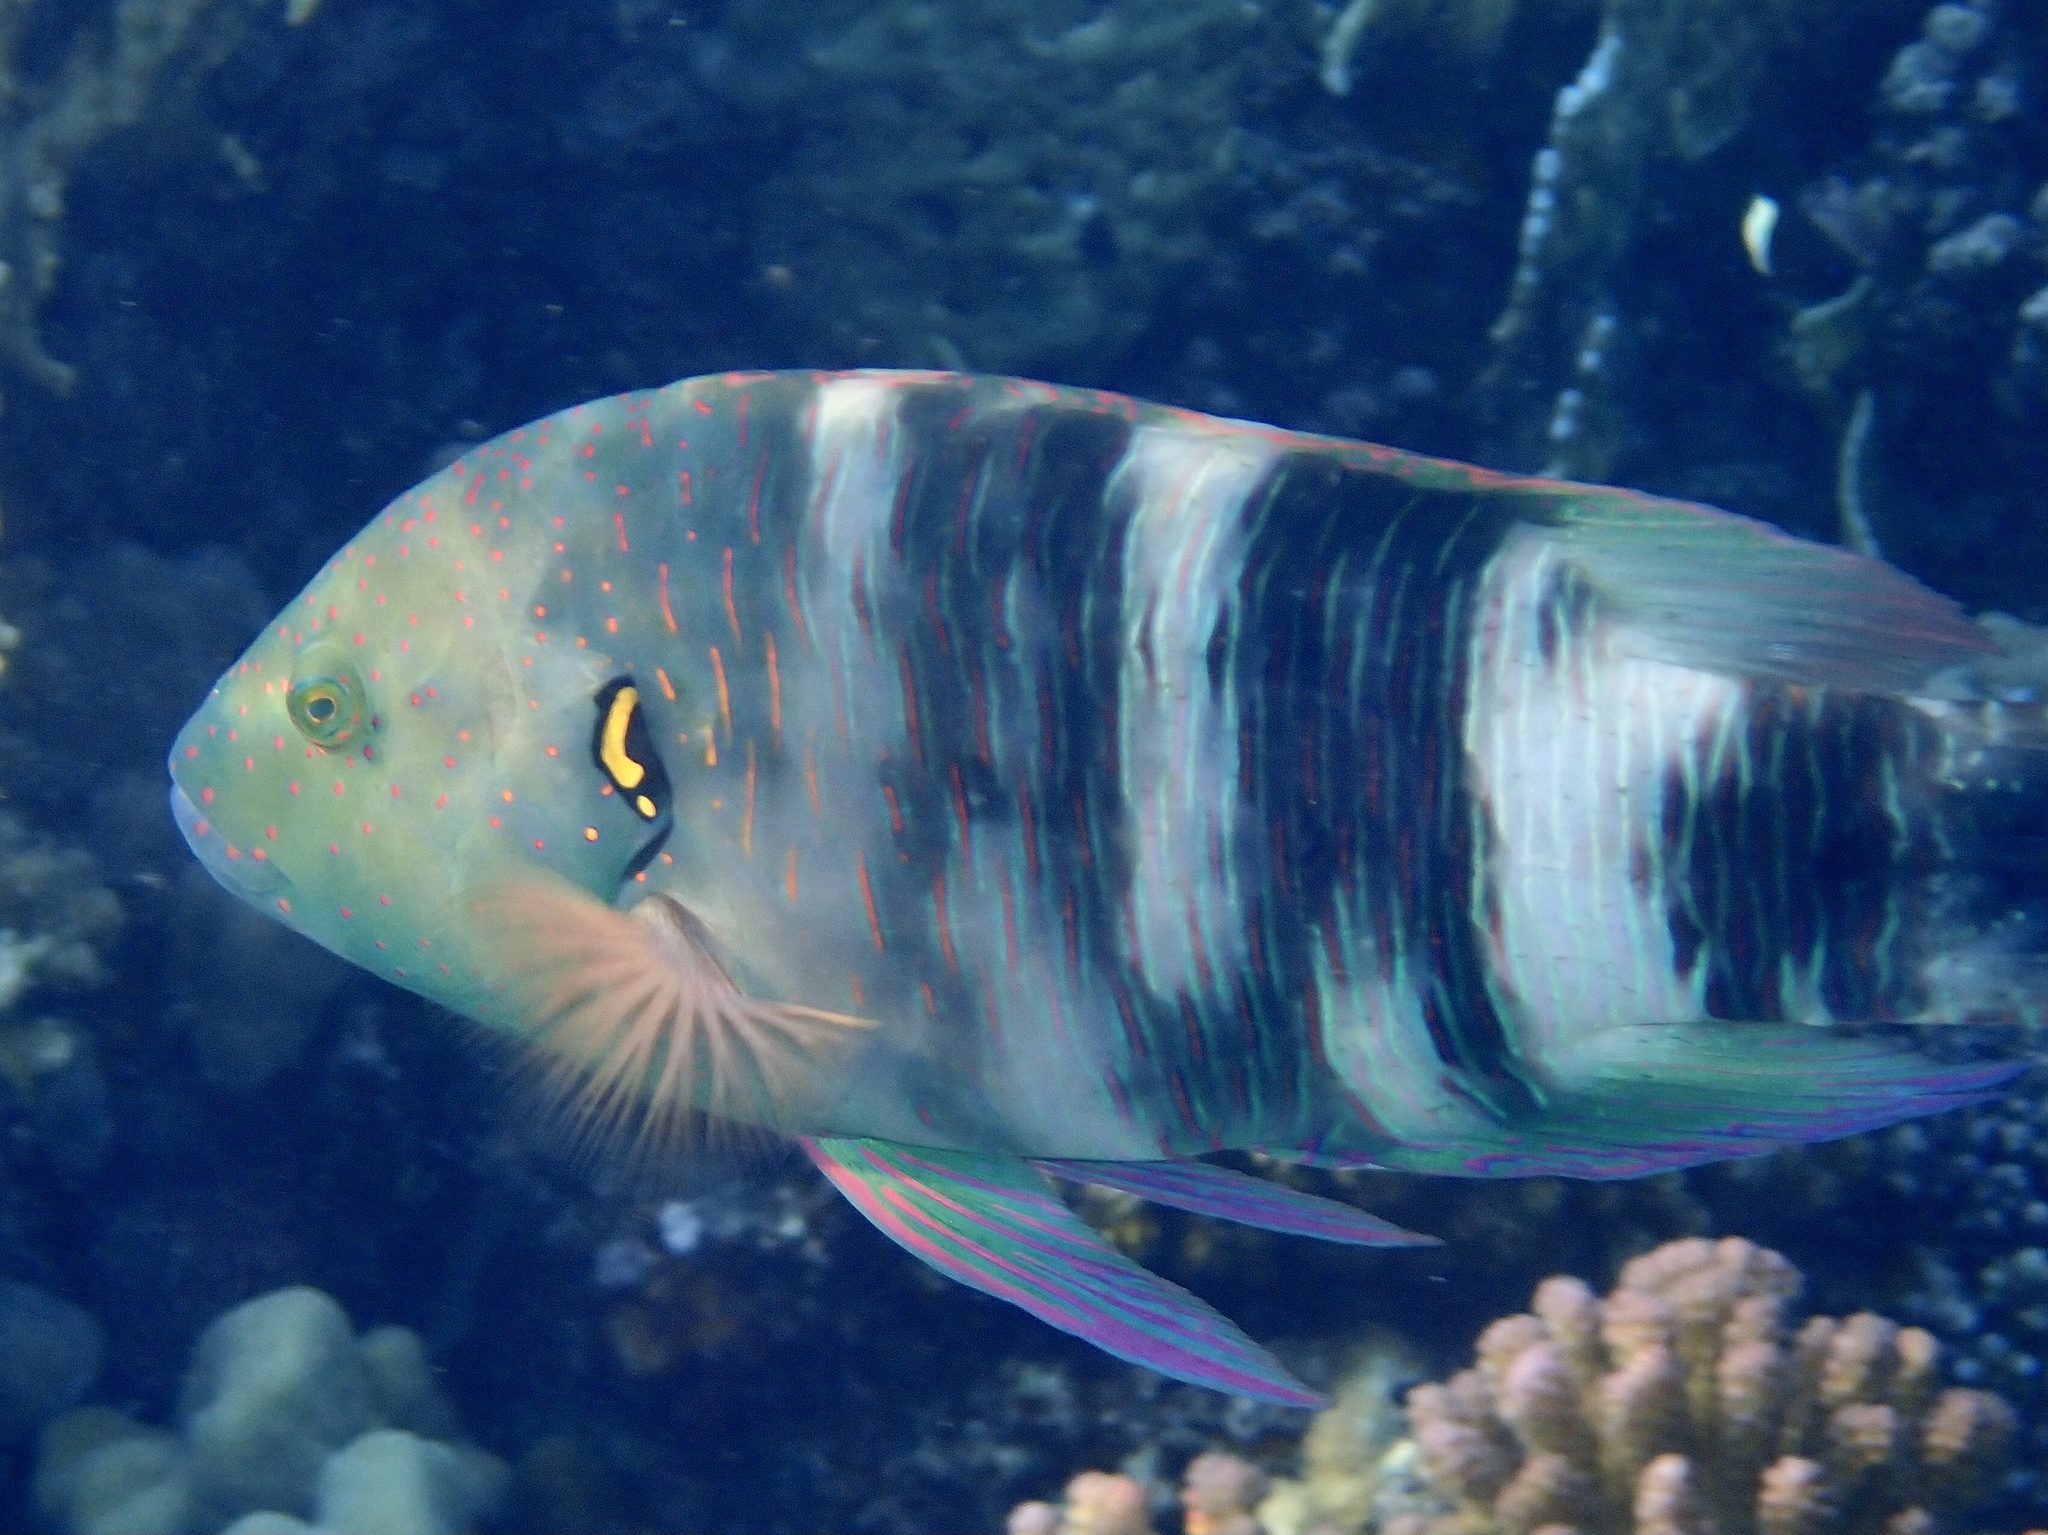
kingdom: Animalia
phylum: Chordata
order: Perciformes
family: Labridae
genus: Cheilinus
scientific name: Cheilinus lunulatus
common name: Broomtail wrasse
